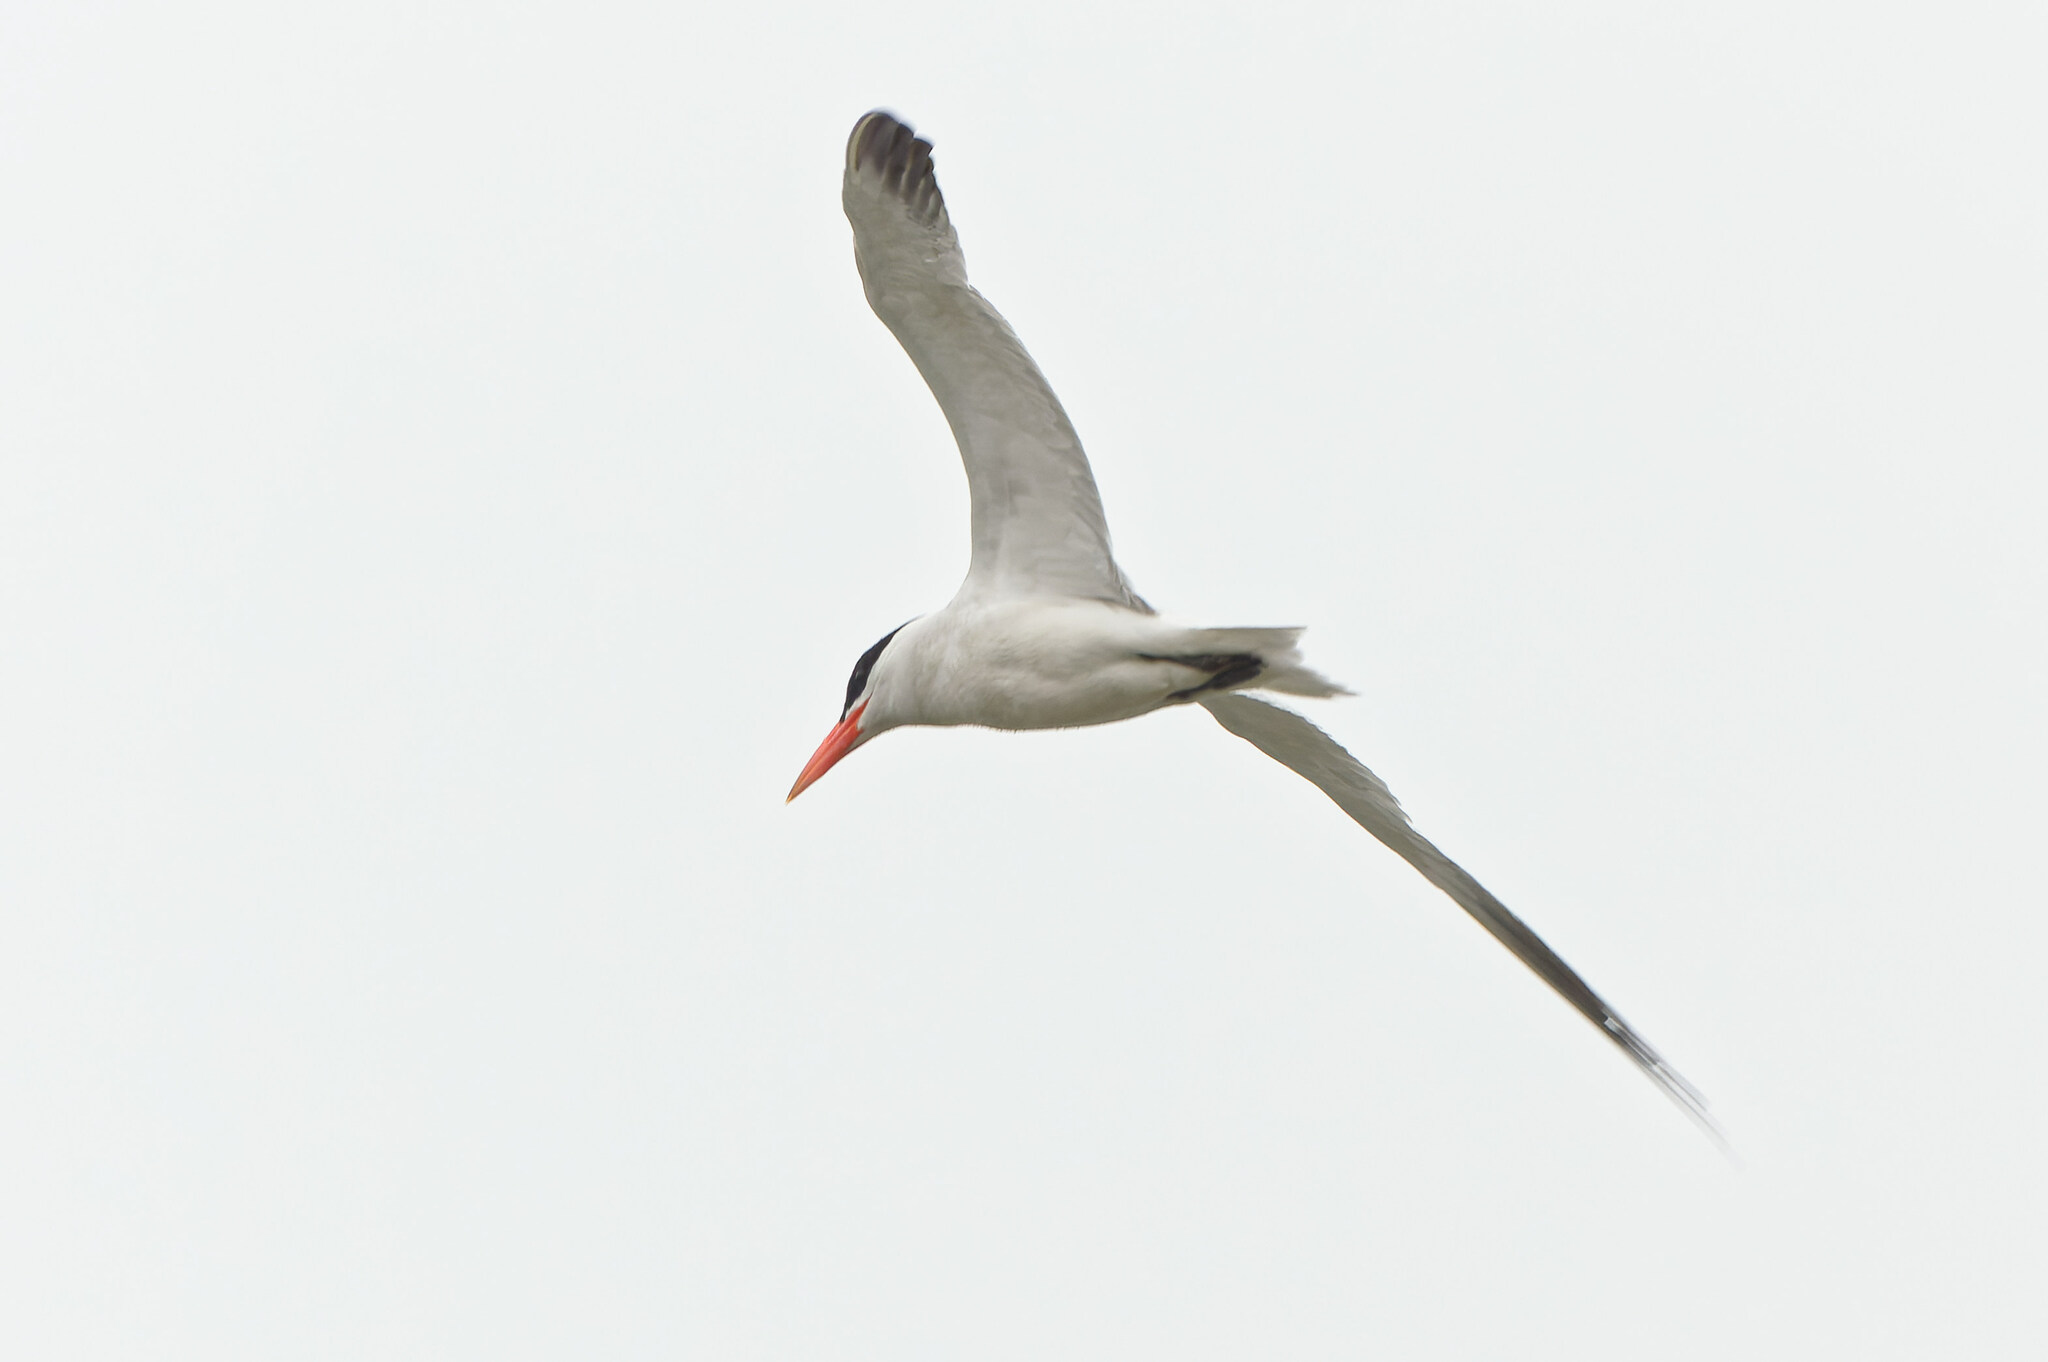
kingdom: Animalia
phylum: Chordata
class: Aves
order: Charadriiformes
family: Laridae
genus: Hydroprogne
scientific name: Hydroprogne caspia
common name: Caspian tern
